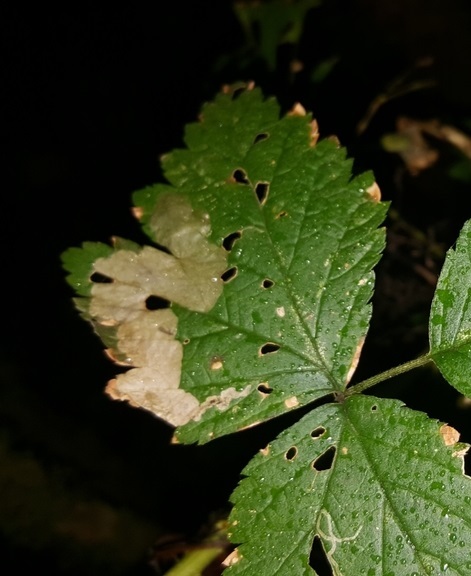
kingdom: Animalia
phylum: Arthropoda
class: Insecta
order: Hymenoptera
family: Tenthredinidae
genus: Metallus
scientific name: Metallus capitalis
